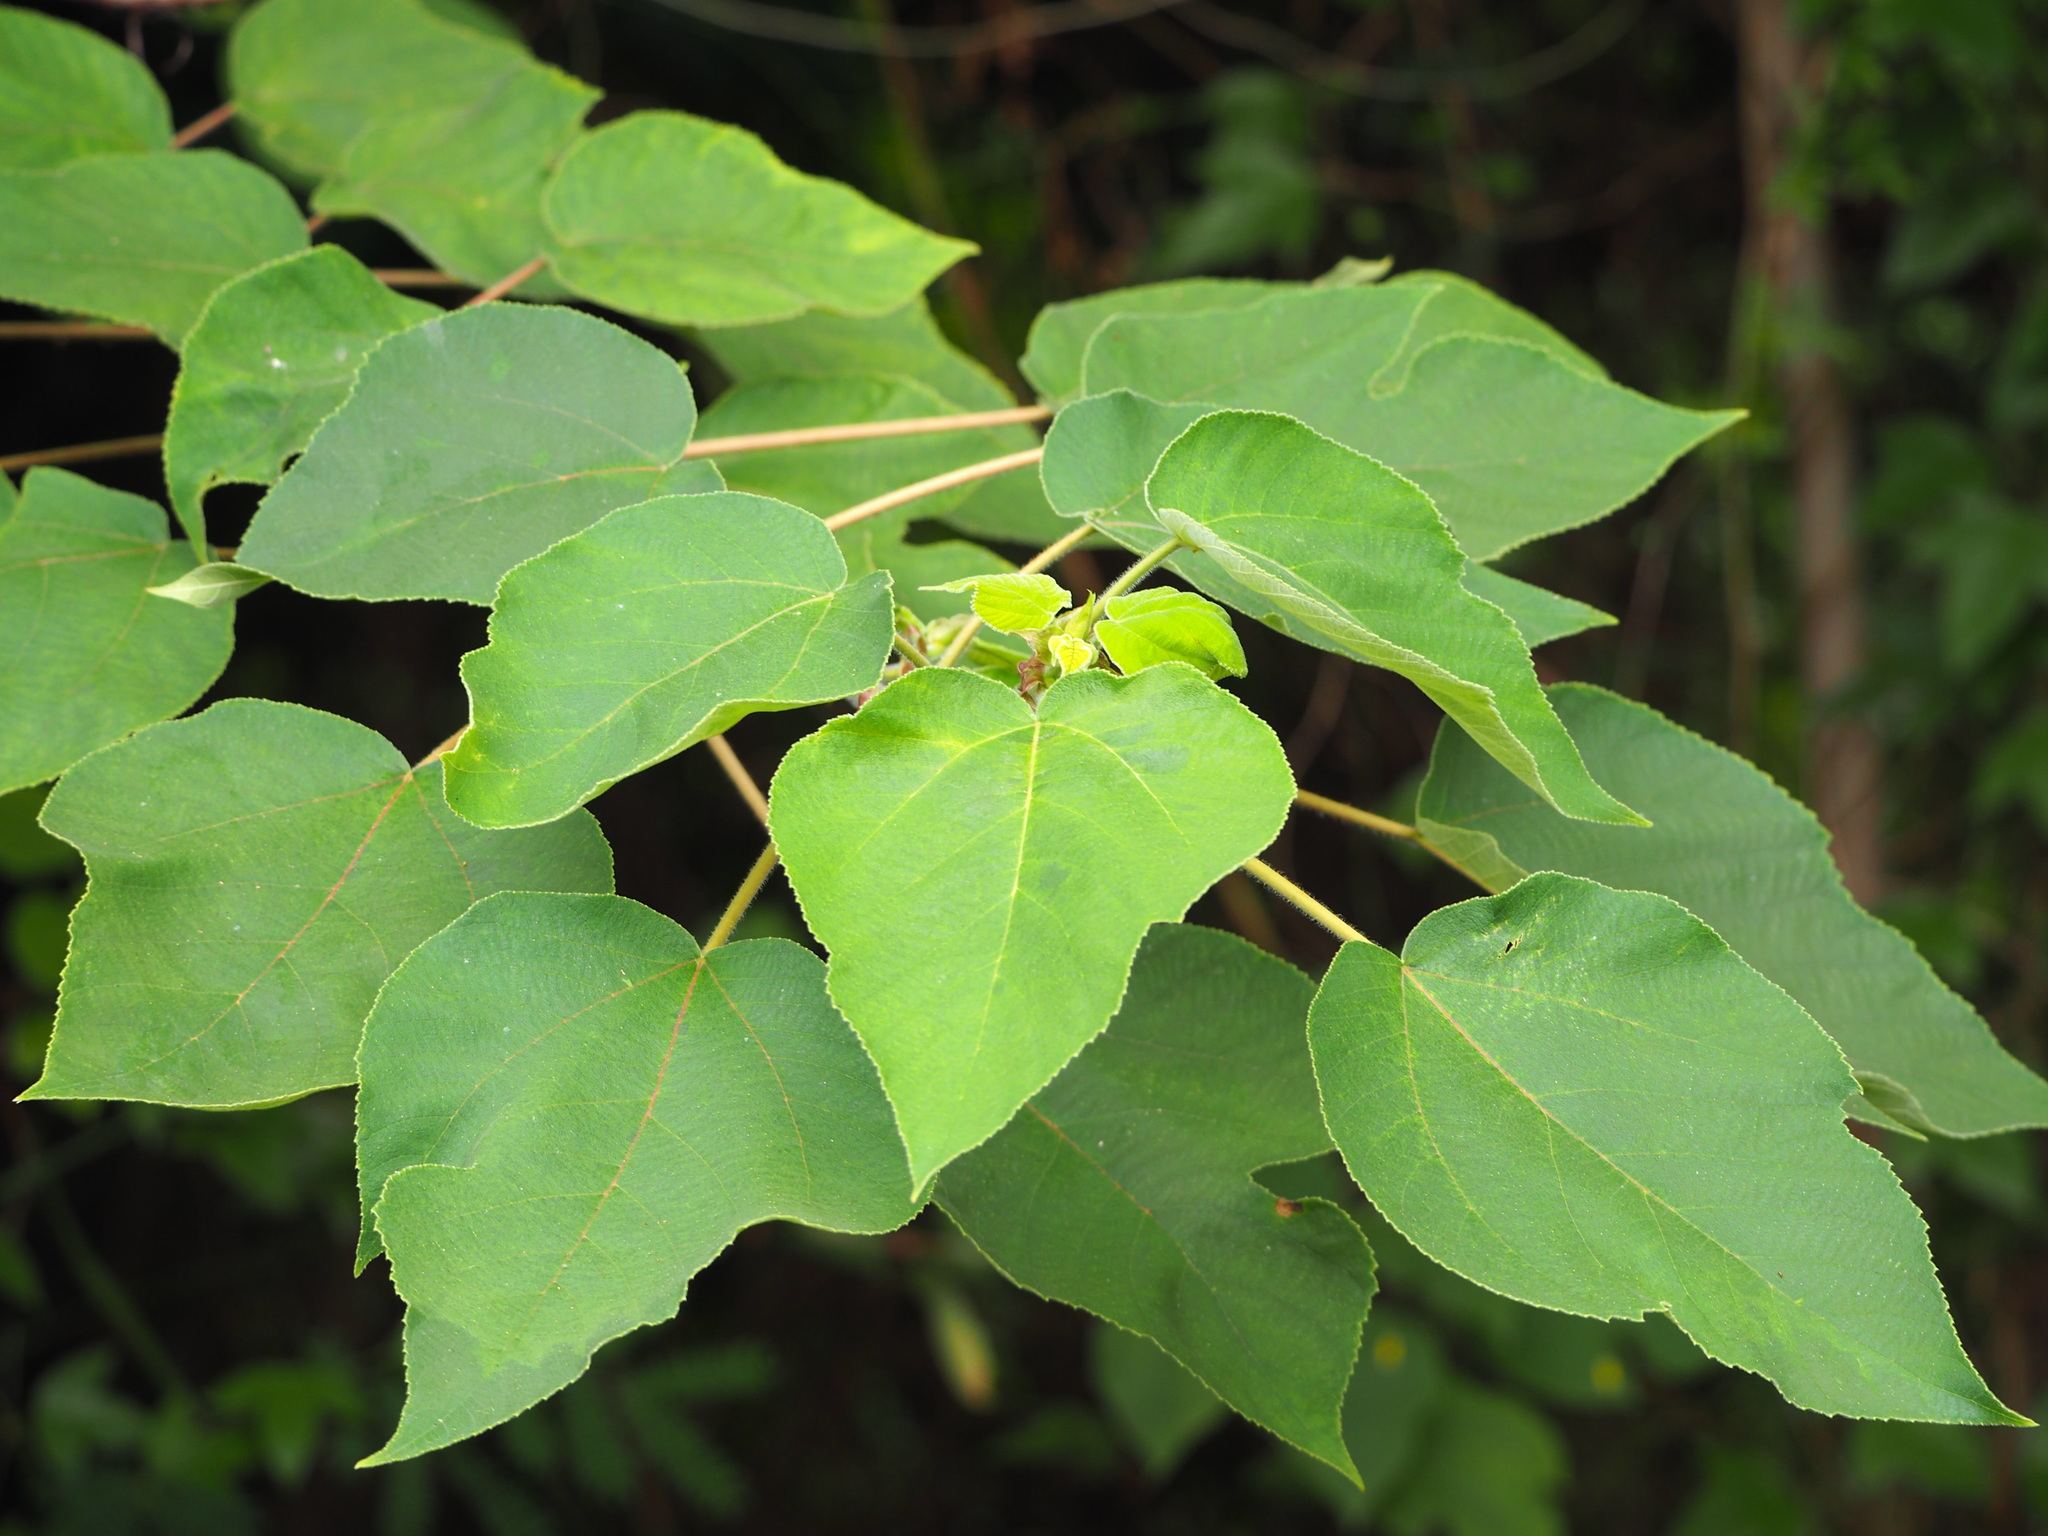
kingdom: Plantae
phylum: Tracheophyta
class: Magnoliopsida
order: Rosales
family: Moraceae
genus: Broussonetia
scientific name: Broussonetia papyrifera
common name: Paper mulberry
